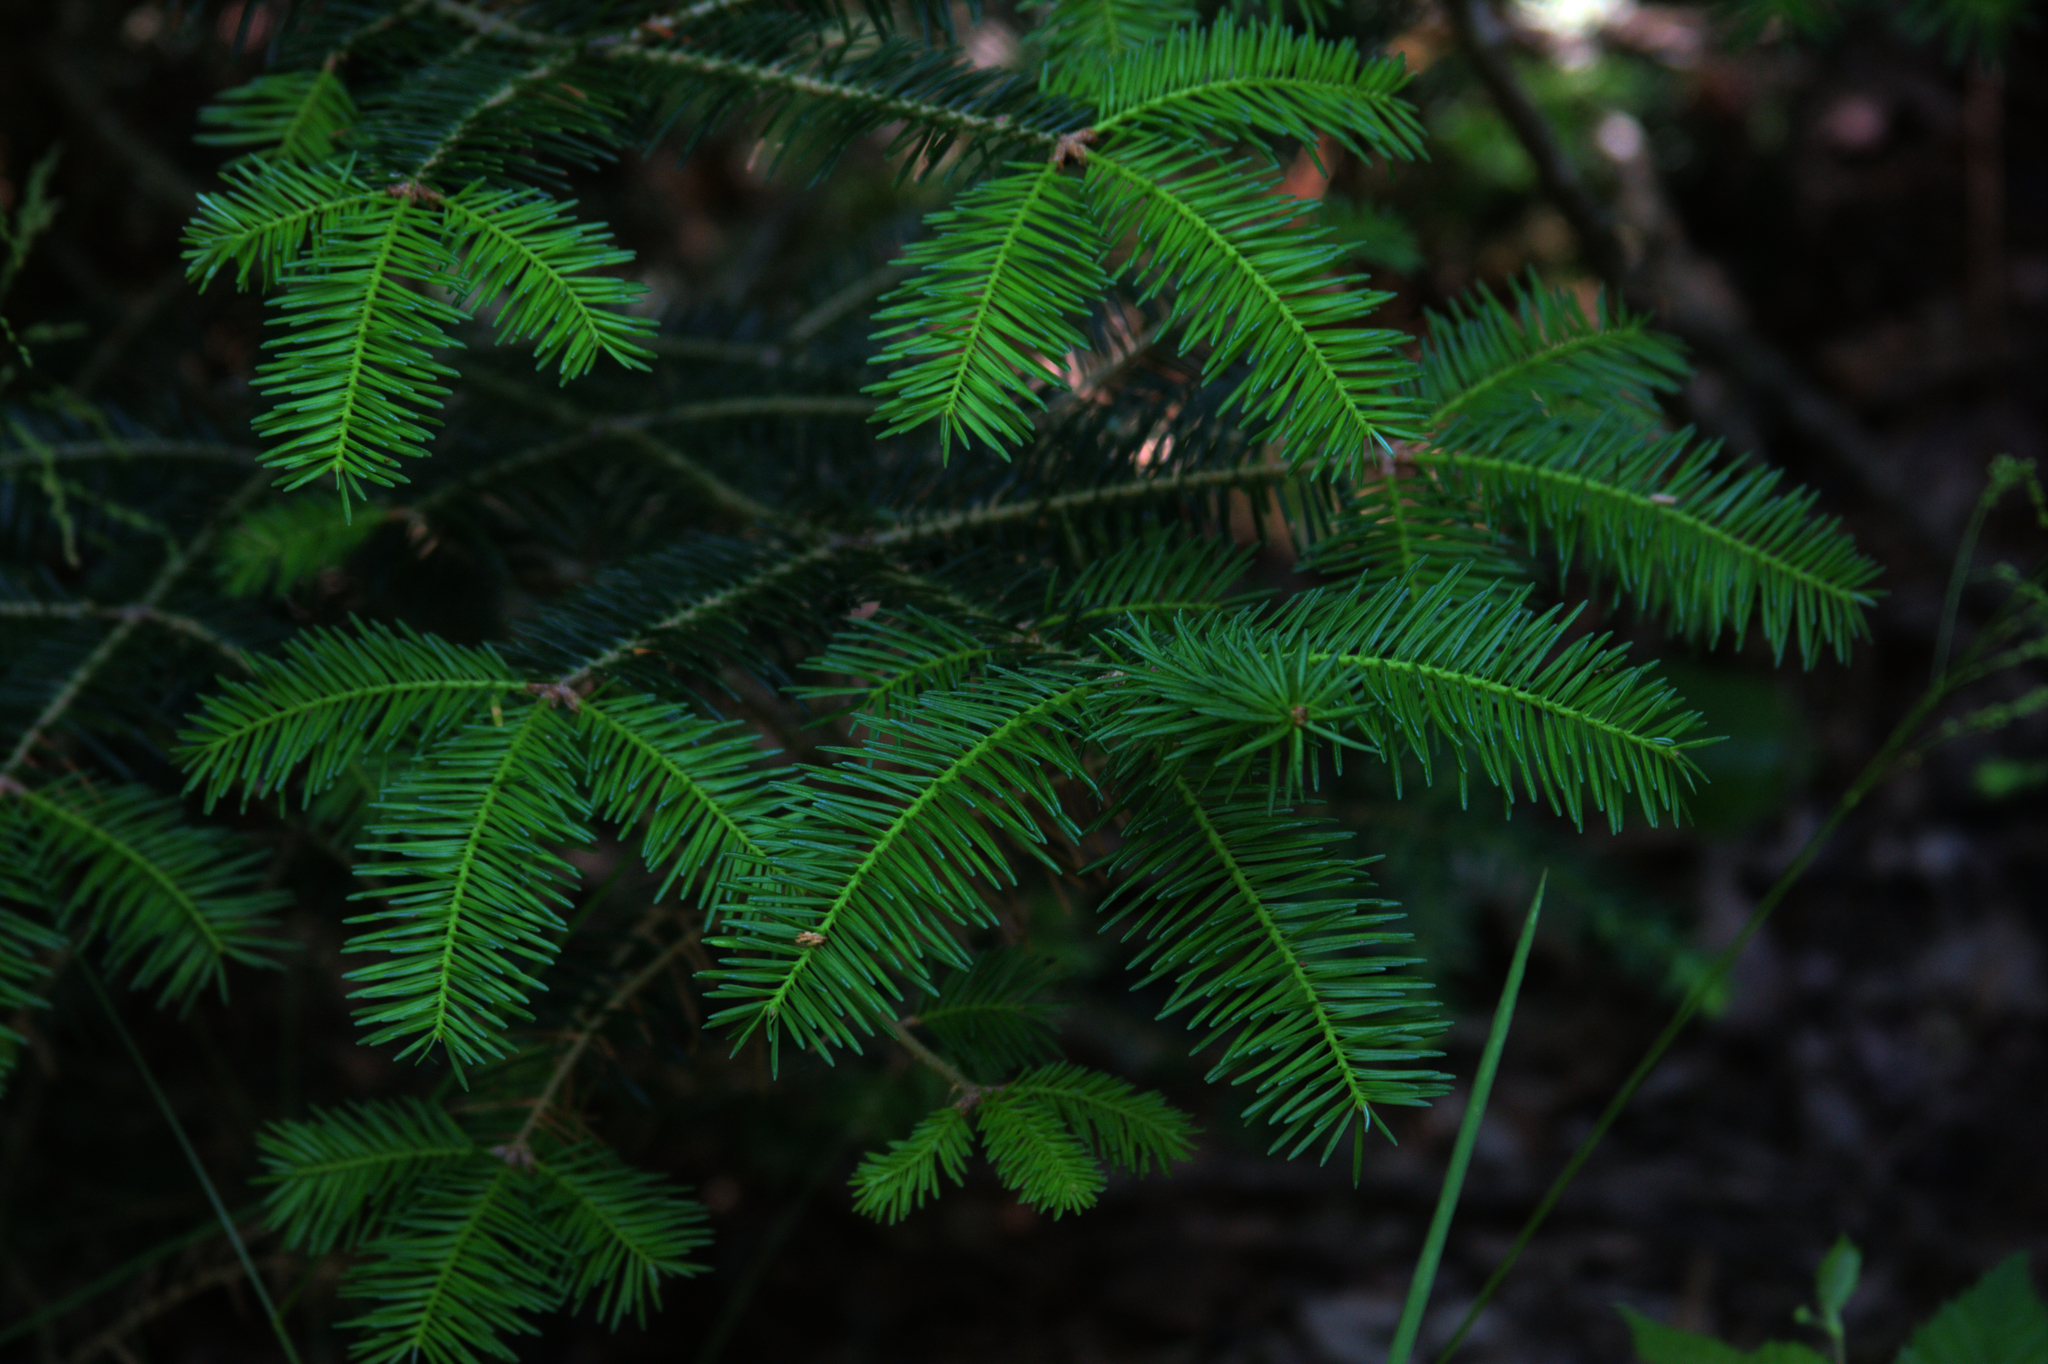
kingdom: Plantae
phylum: Tracheophyta
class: Pinopsida
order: Pinales
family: Pinaceae
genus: Abies
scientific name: Abies balsamea
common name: Balsam fir
